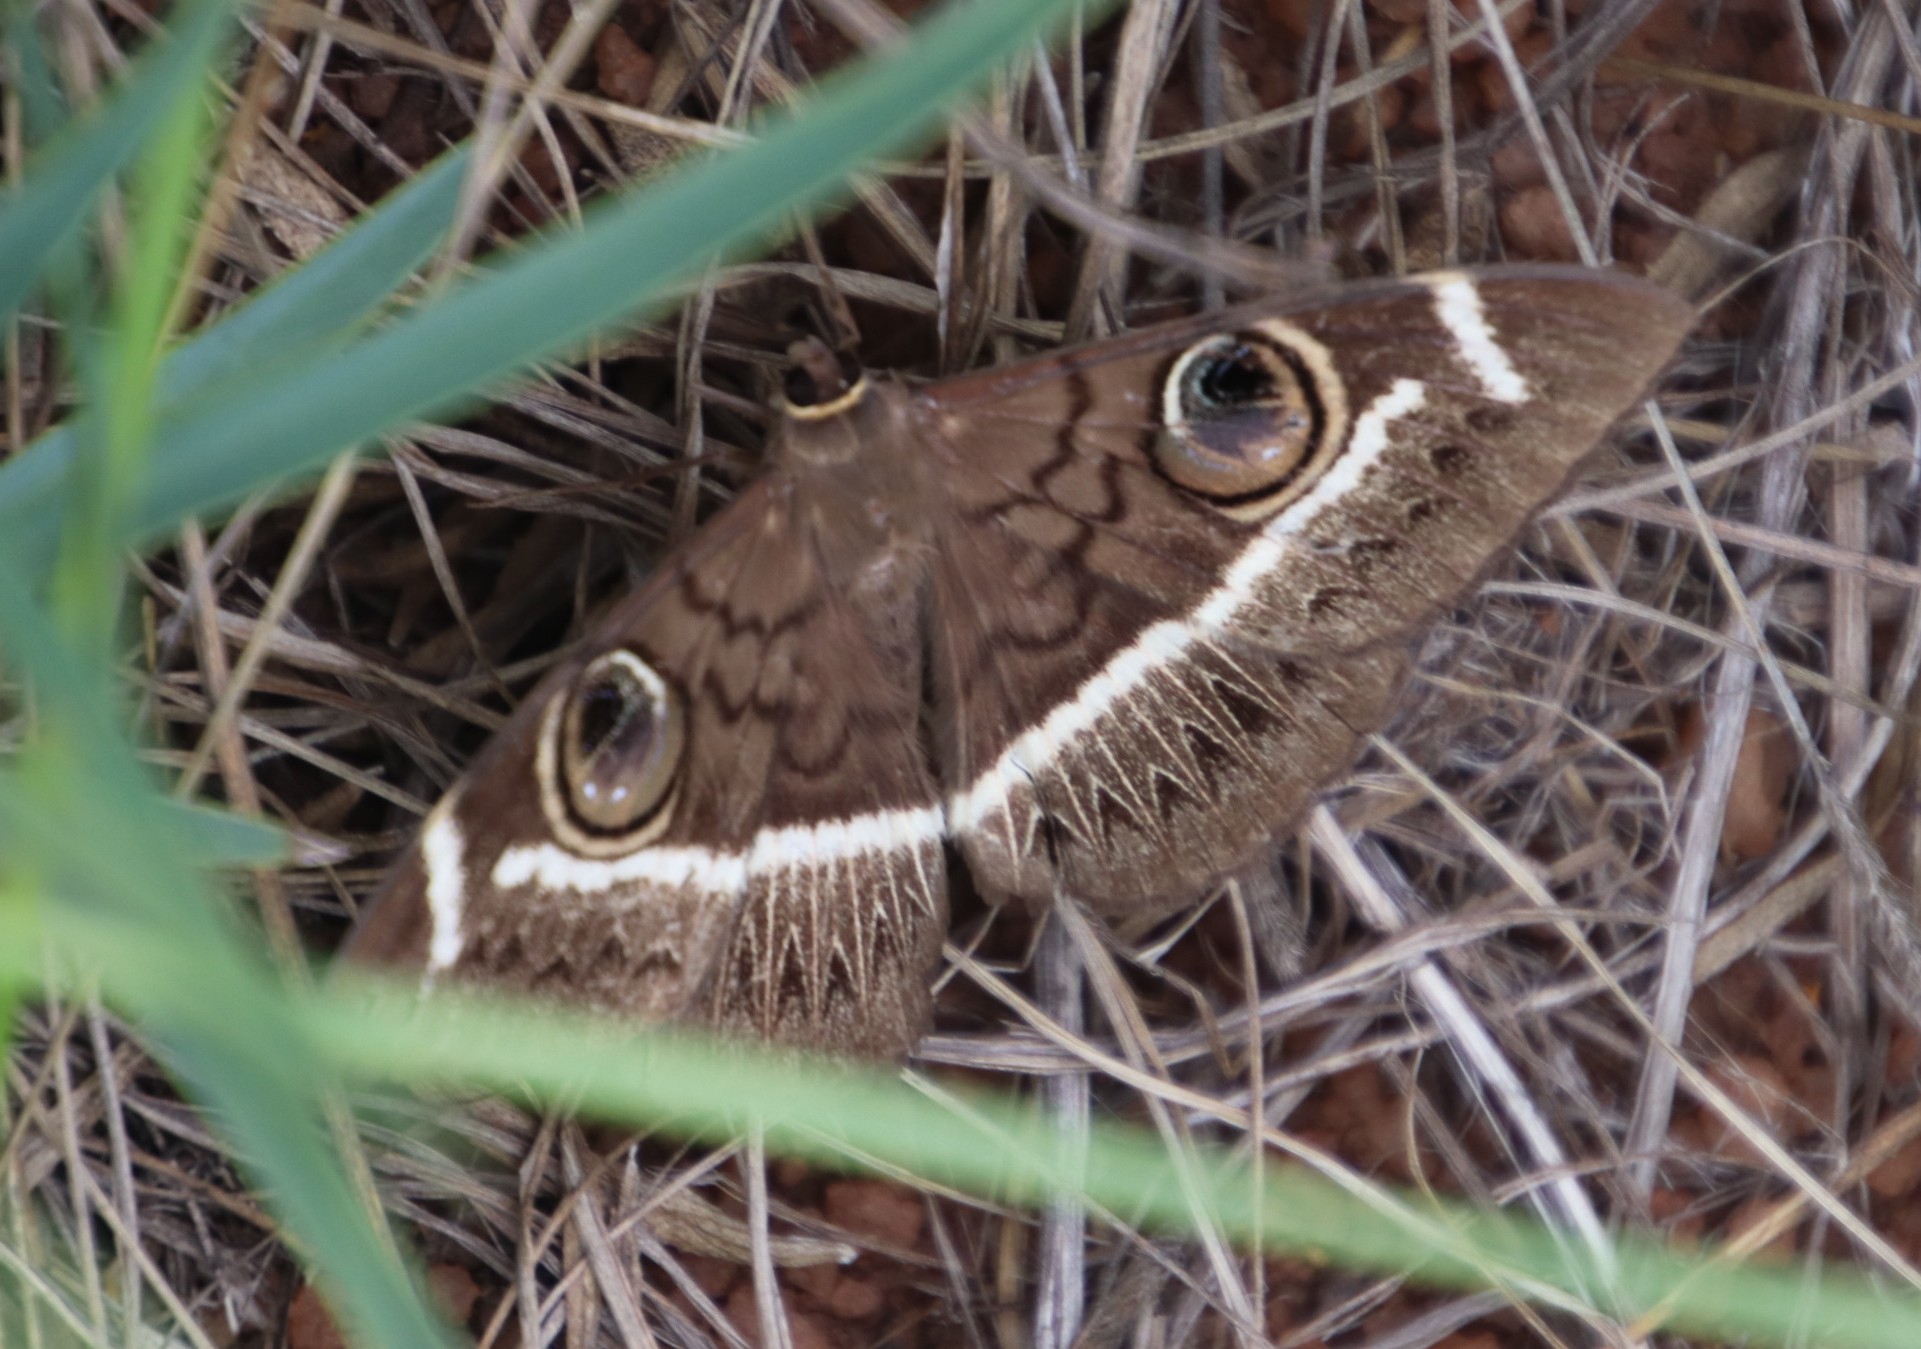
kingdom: Animalia
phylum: Arthropoda
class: Insecta
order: Lepidoptera
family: Erebidae
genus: Cyligramma
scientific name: Cyligramma latona
